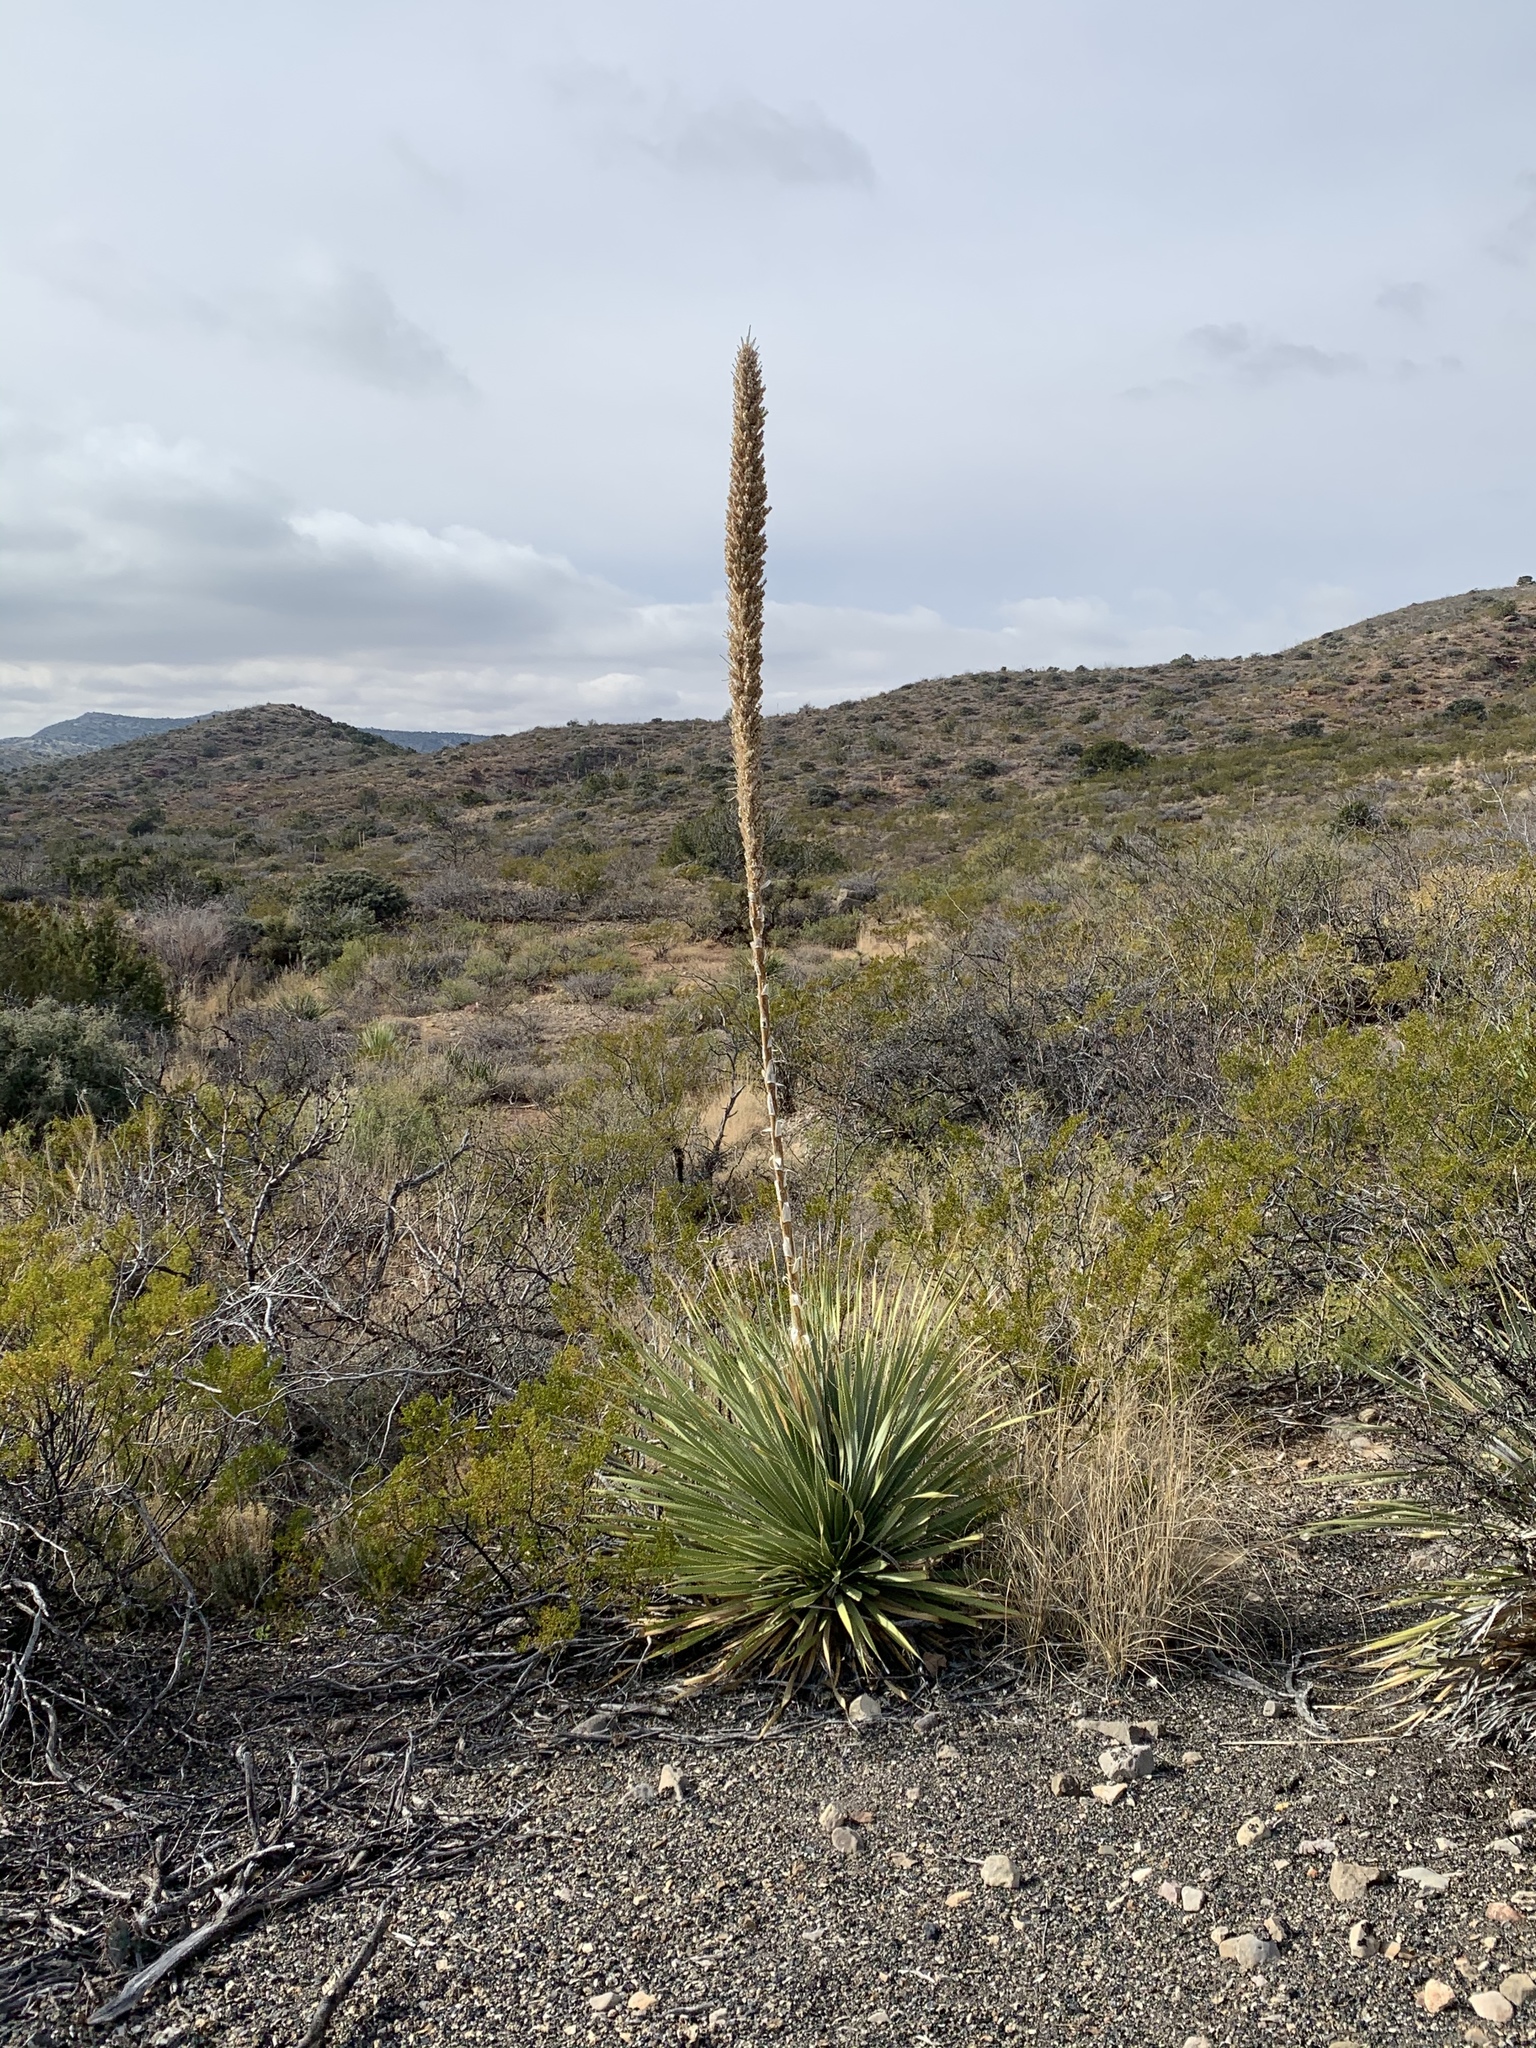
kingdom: Plantae
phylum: Tracheophyta
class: Liliopsida
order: Asparagales
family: Asparagaceae
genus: Dasylirion
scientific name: Dasylirion wheeleri
